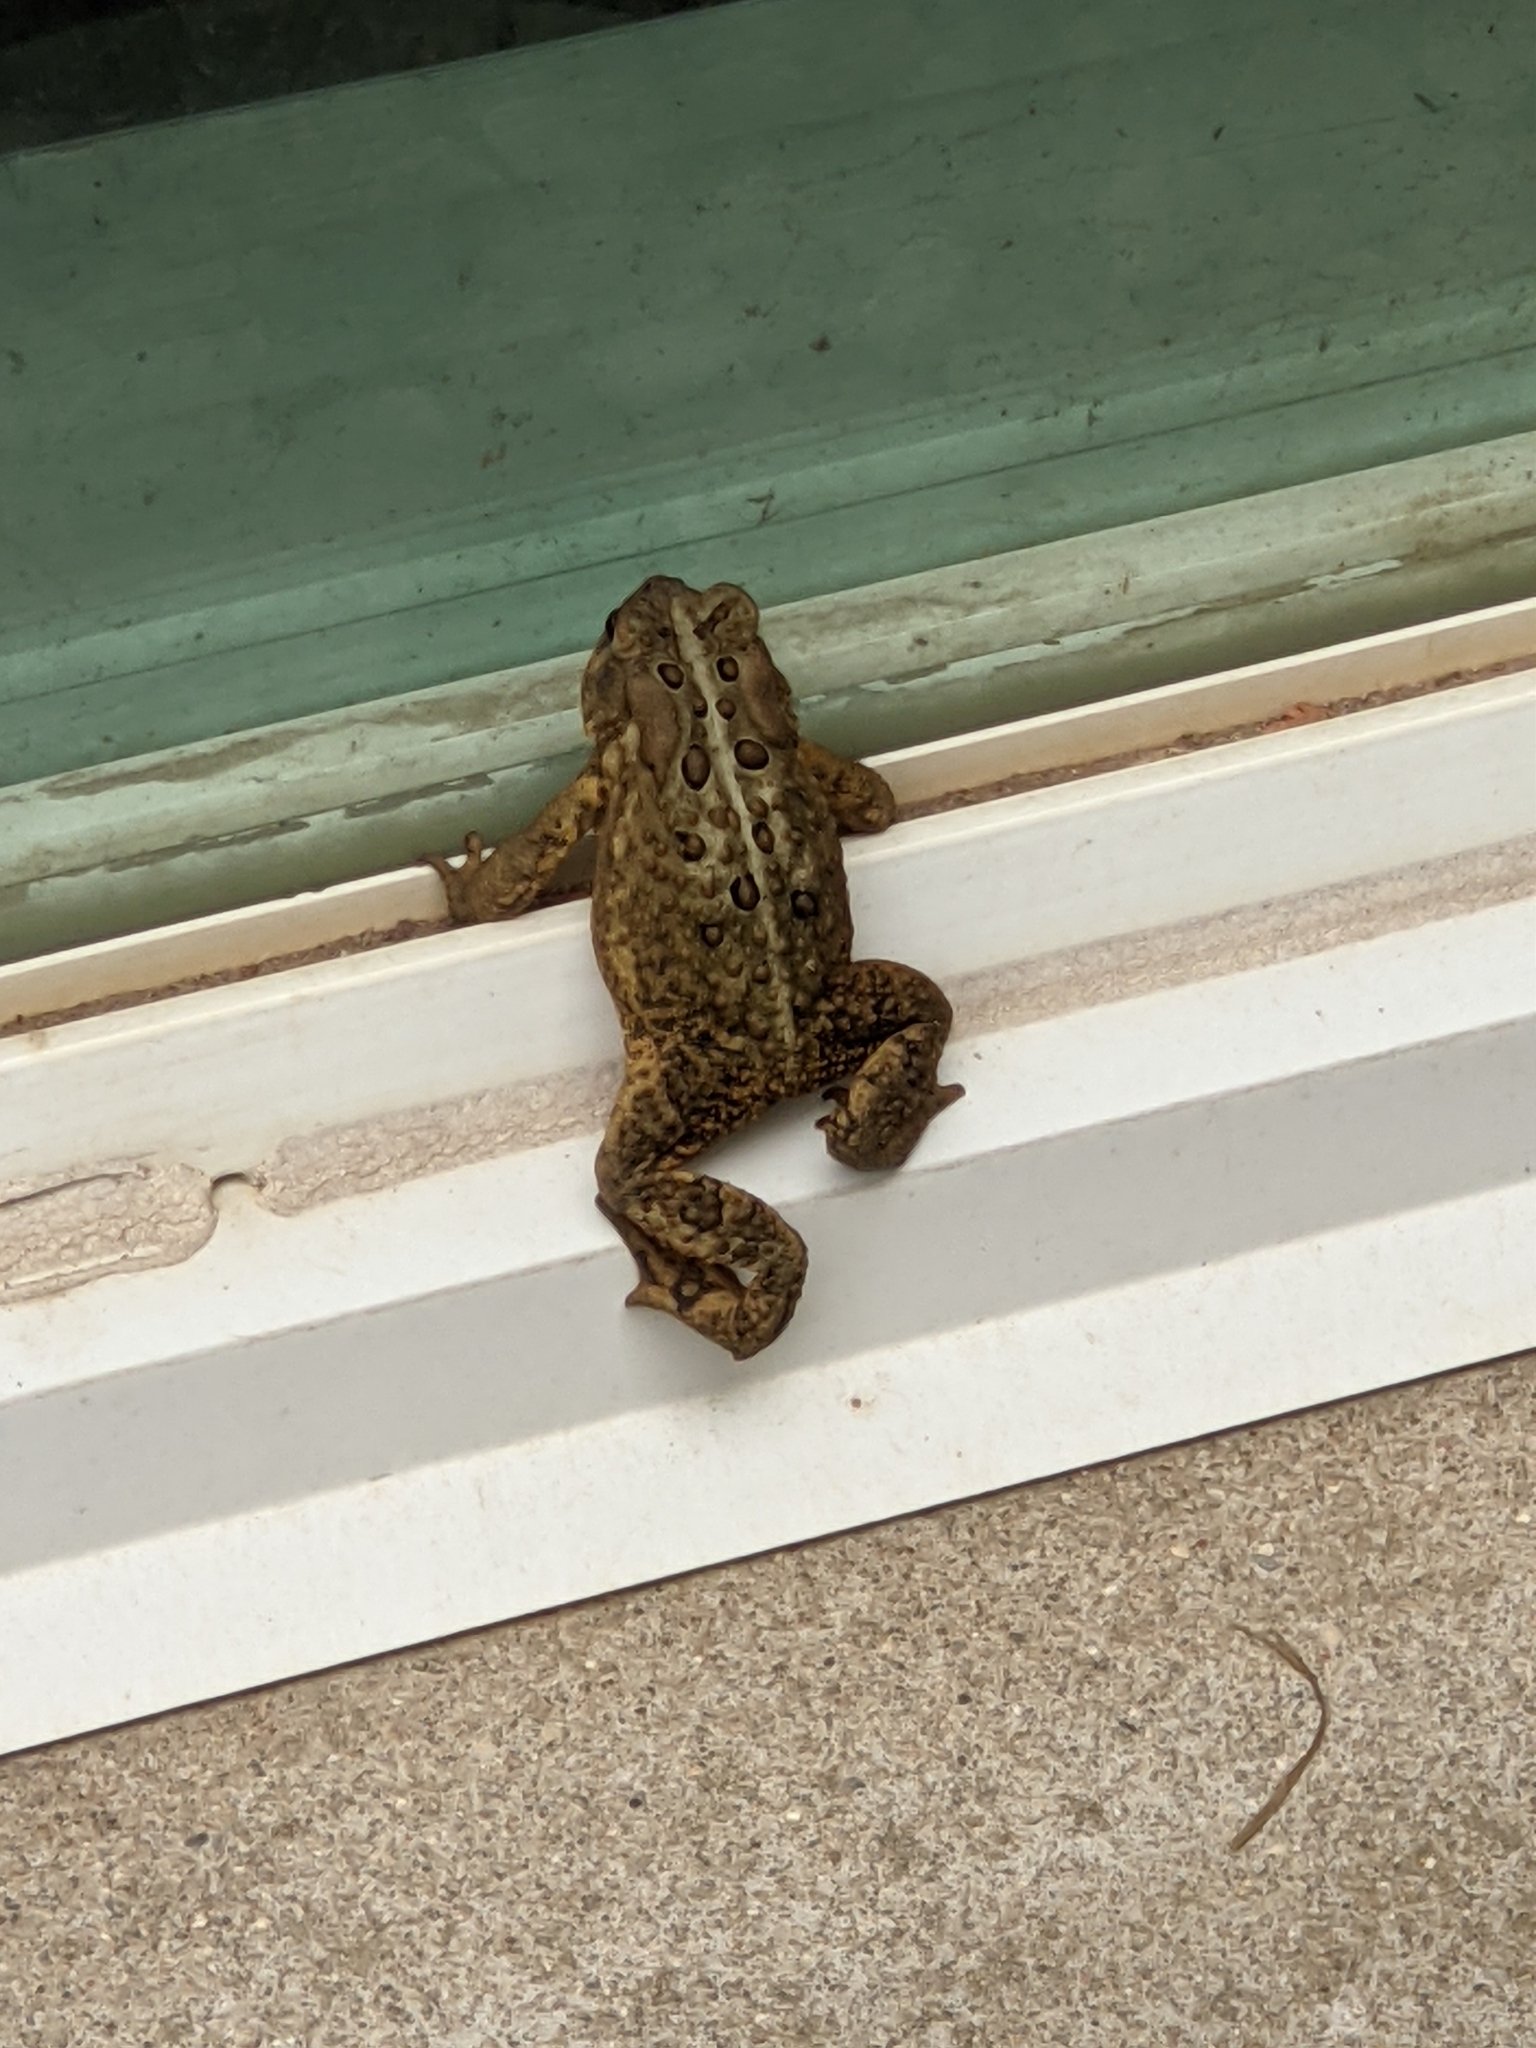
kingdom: Animalia
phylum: Chordata
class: Amphibia
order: Anura
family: Bufonidae
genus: Anaxyrus
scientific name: Anaxyrus americanus
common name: American toad
